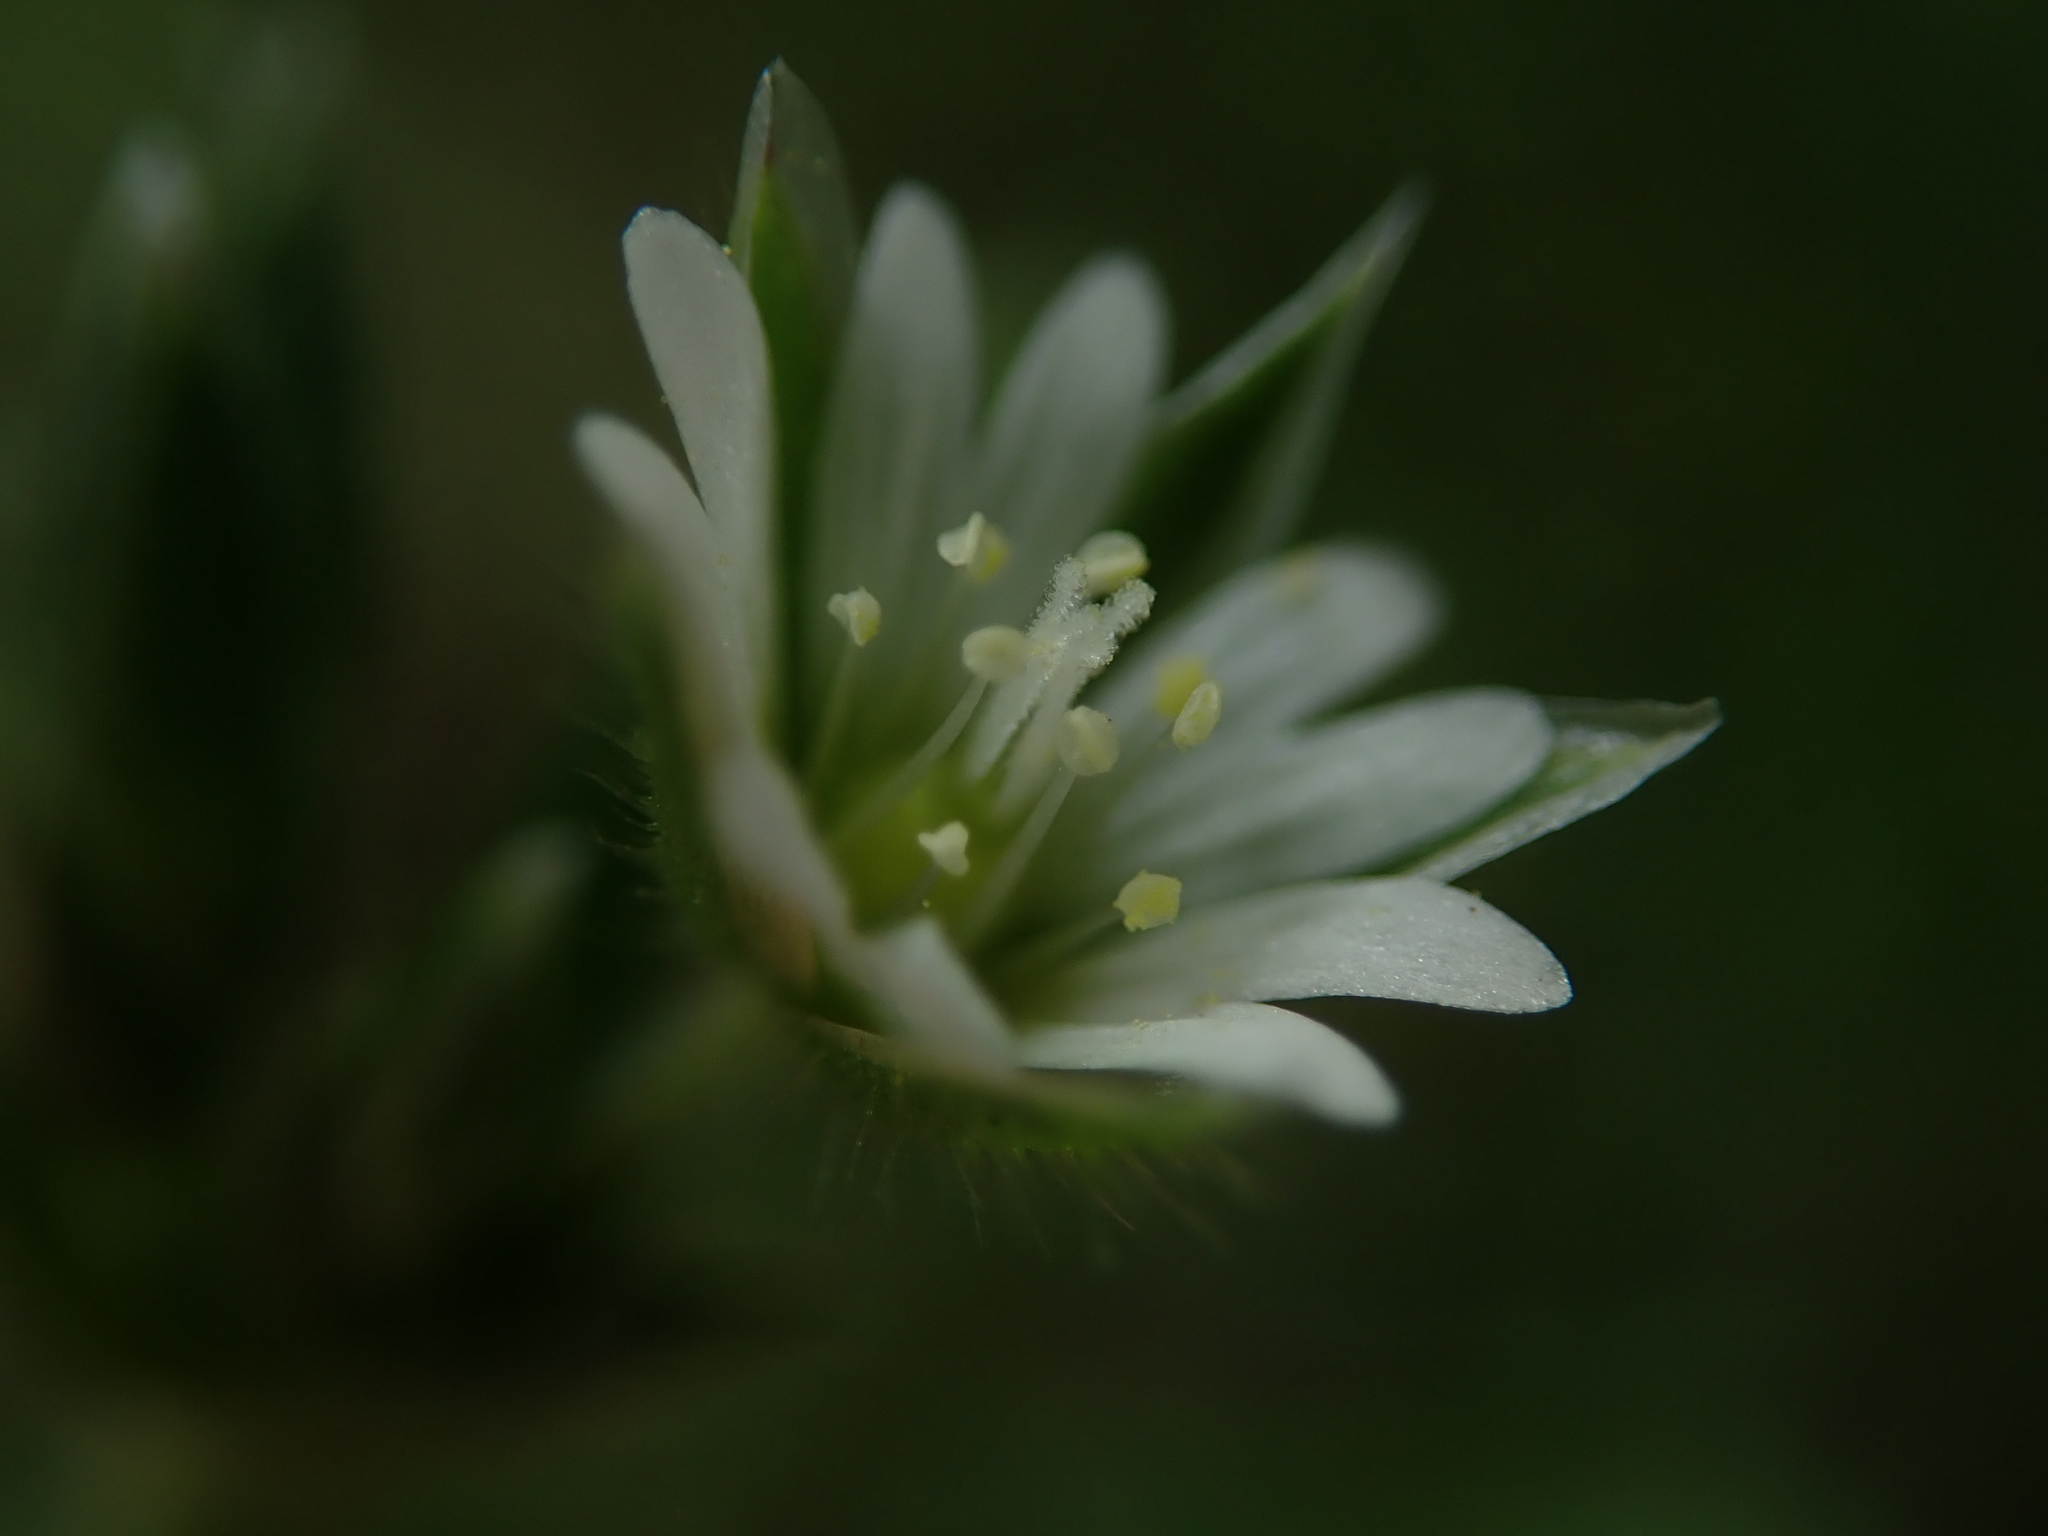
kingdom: Plantae
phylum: Tracheophyta
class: Magnoliopsida
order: Caryophyllales
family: Caryophyllaceae
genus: Cerastium
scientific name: Cerastium fontanum
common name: Common mouse-ear
